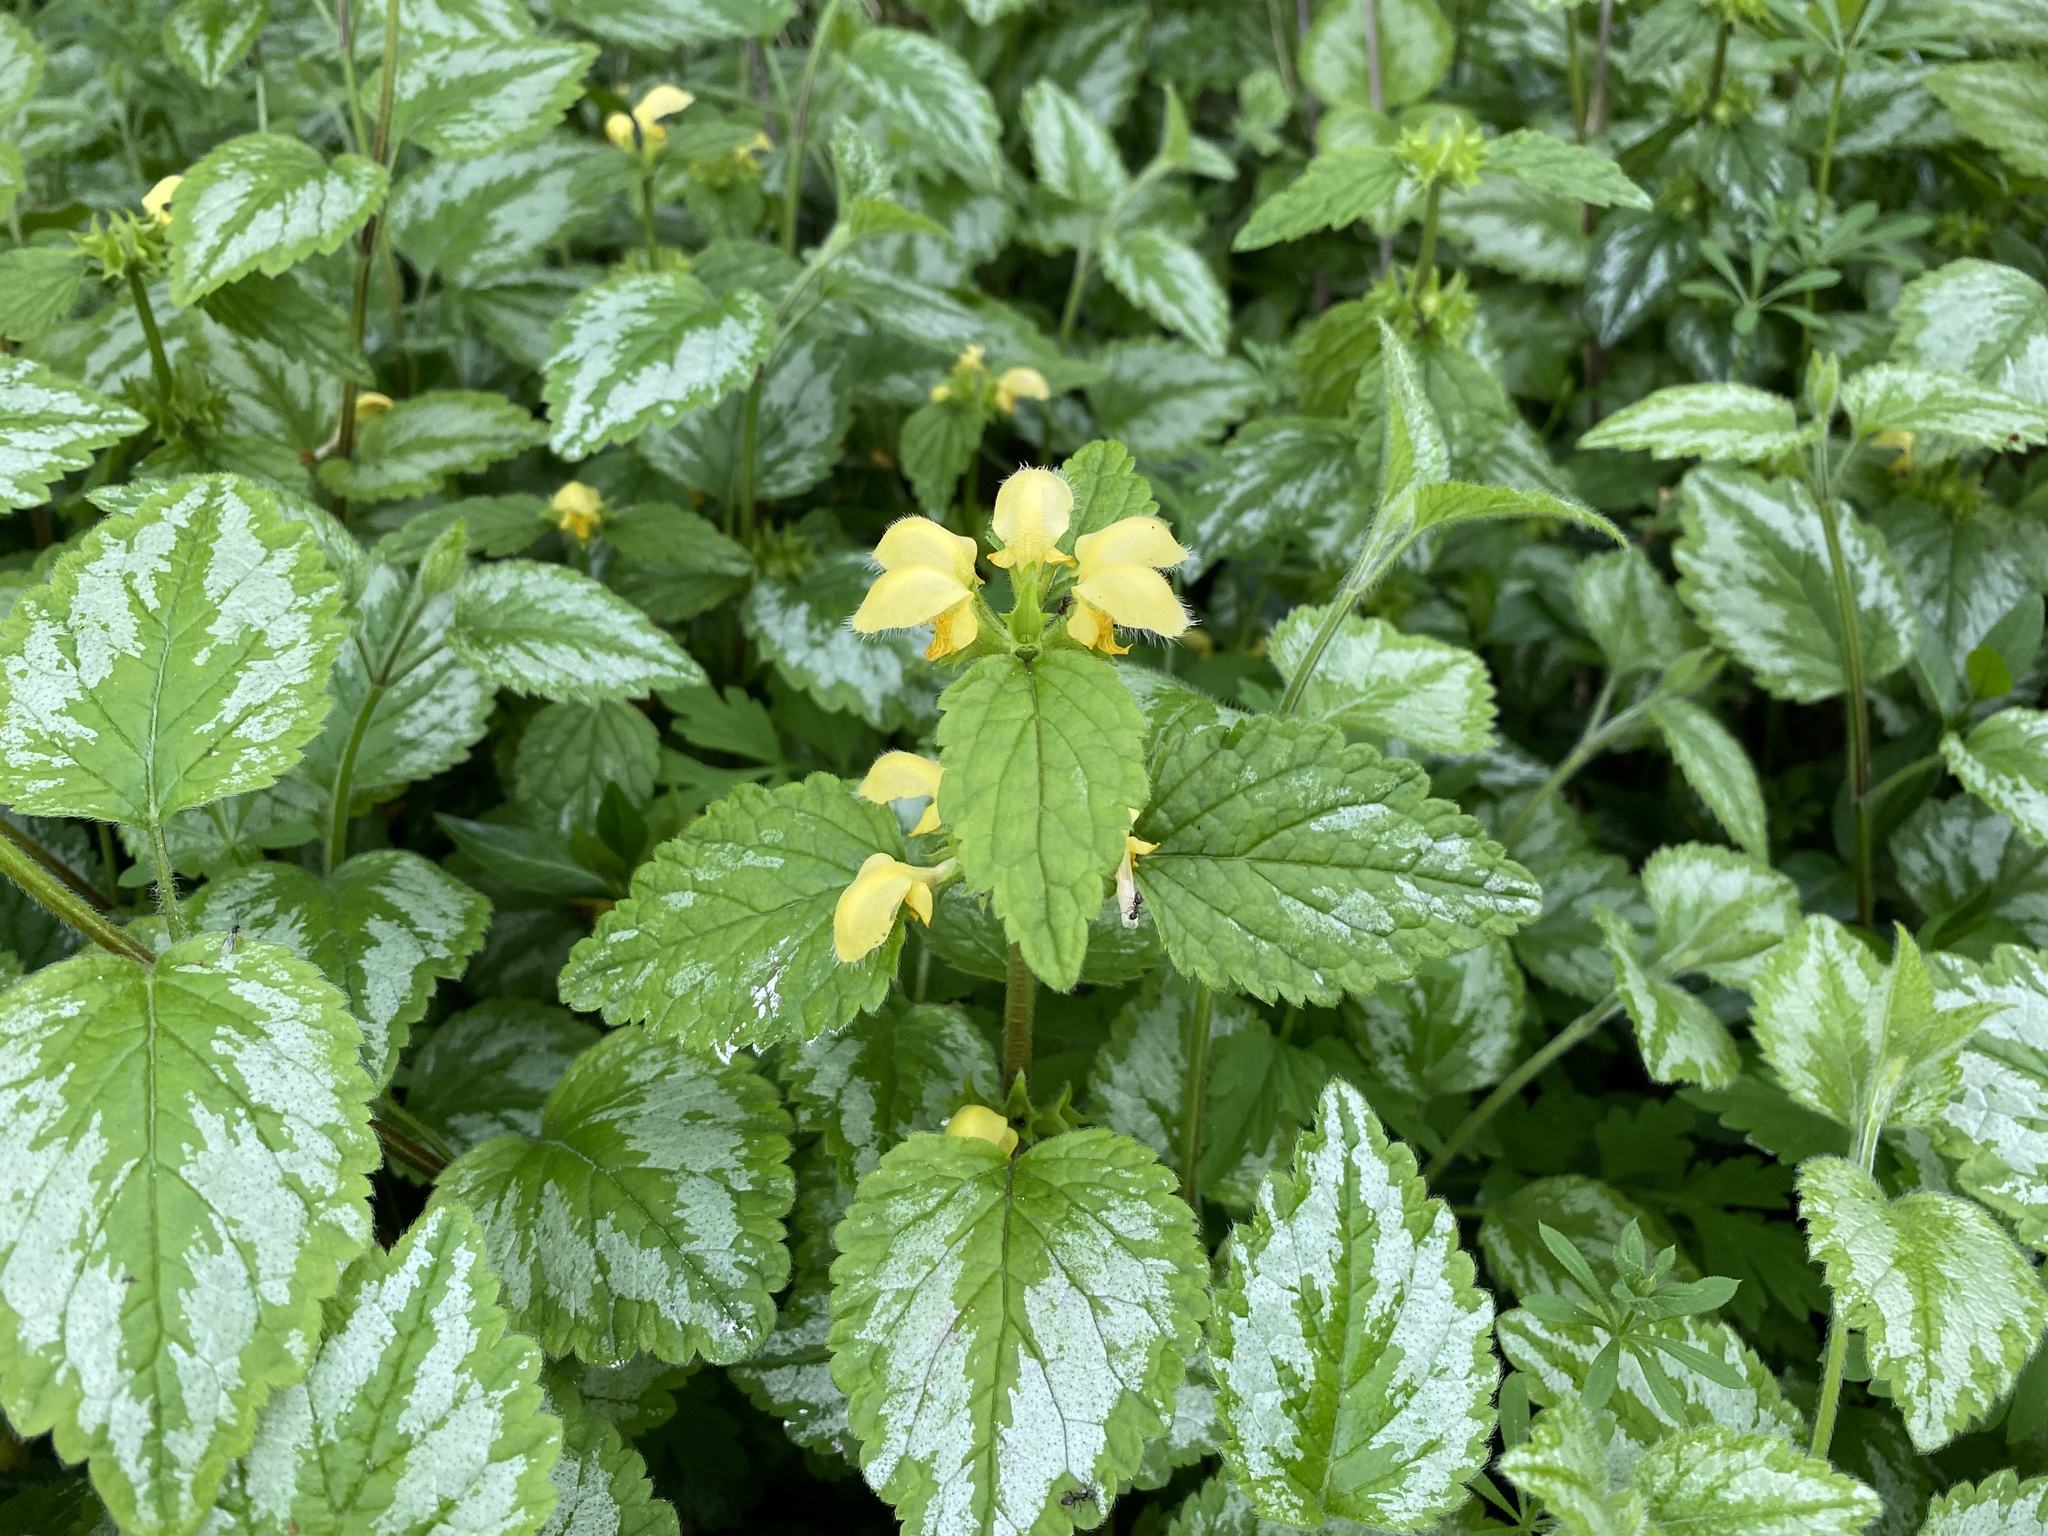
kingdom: Plantae
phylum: Tracheophyta
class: Magnoliopsida
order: Lamiales
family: Lamiaceae
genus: Lamium
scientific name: Lamium galeobdolon
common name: Yellow archangel
